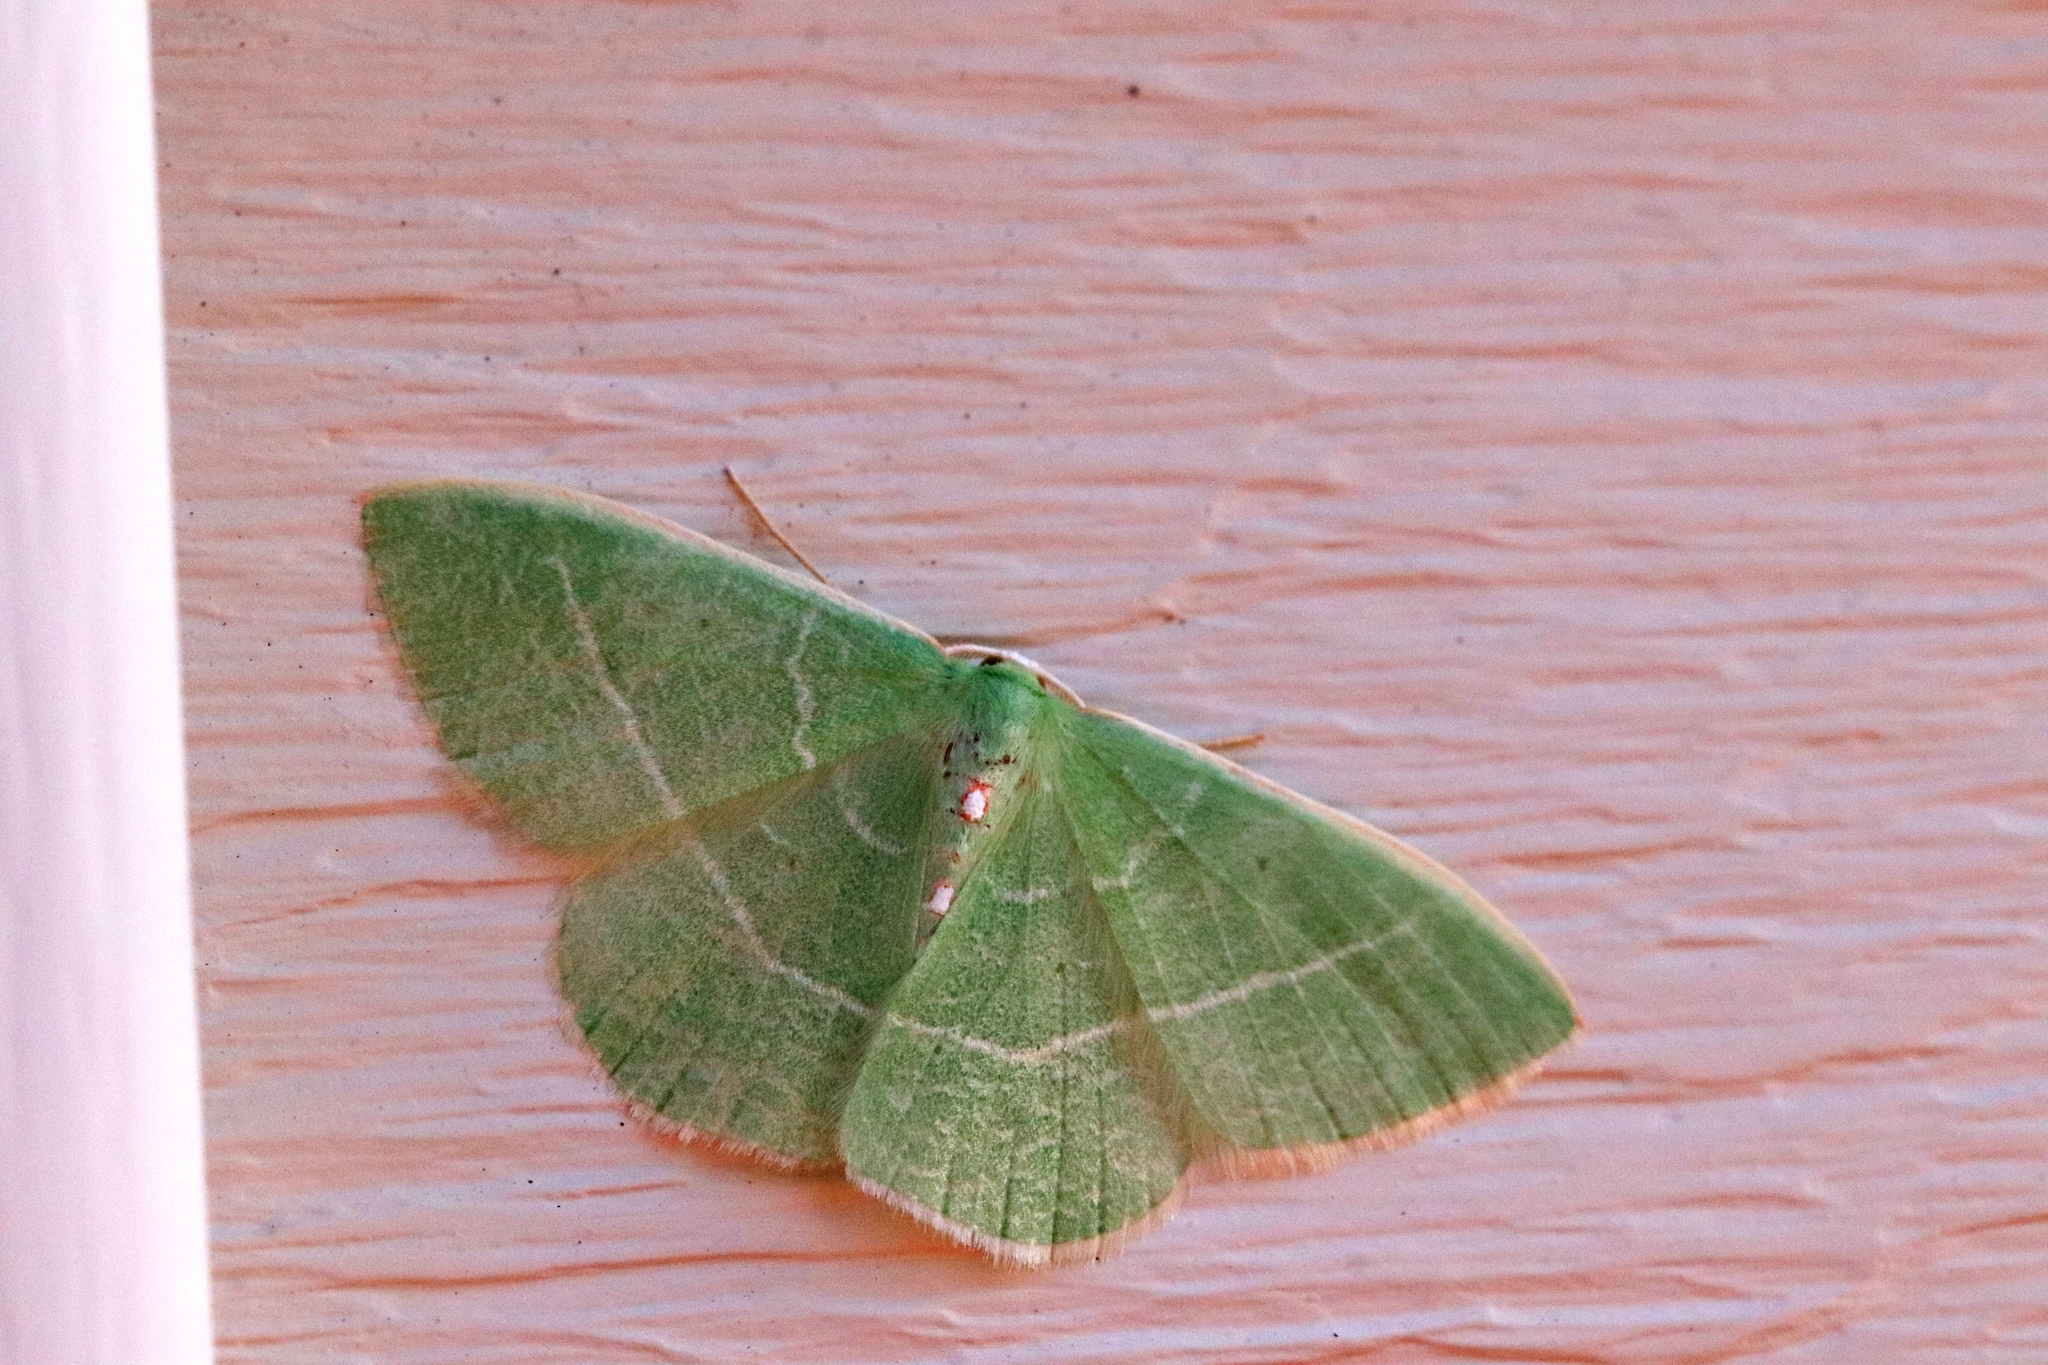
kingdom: Animalia
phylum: Arthropoda
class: Insecta
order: Lepidoptera
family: Geometridae
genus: Nemoria
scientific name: Nemoria darwiniata
